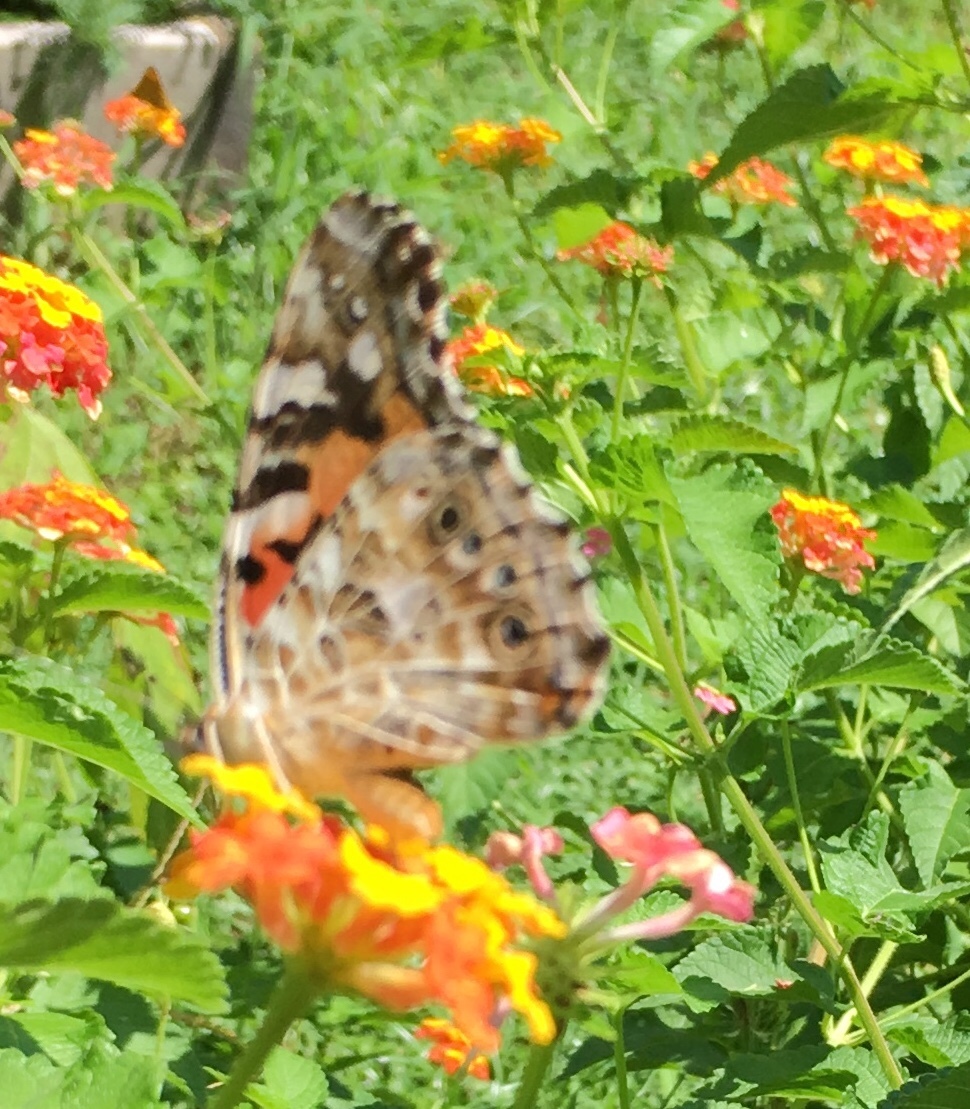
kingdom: Animalia
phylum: Arthropoda
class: Insecta
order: Lepidoptera
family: Nymphalidae
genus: Vanessa
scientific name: Vanessa cardui
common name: Painted lady
